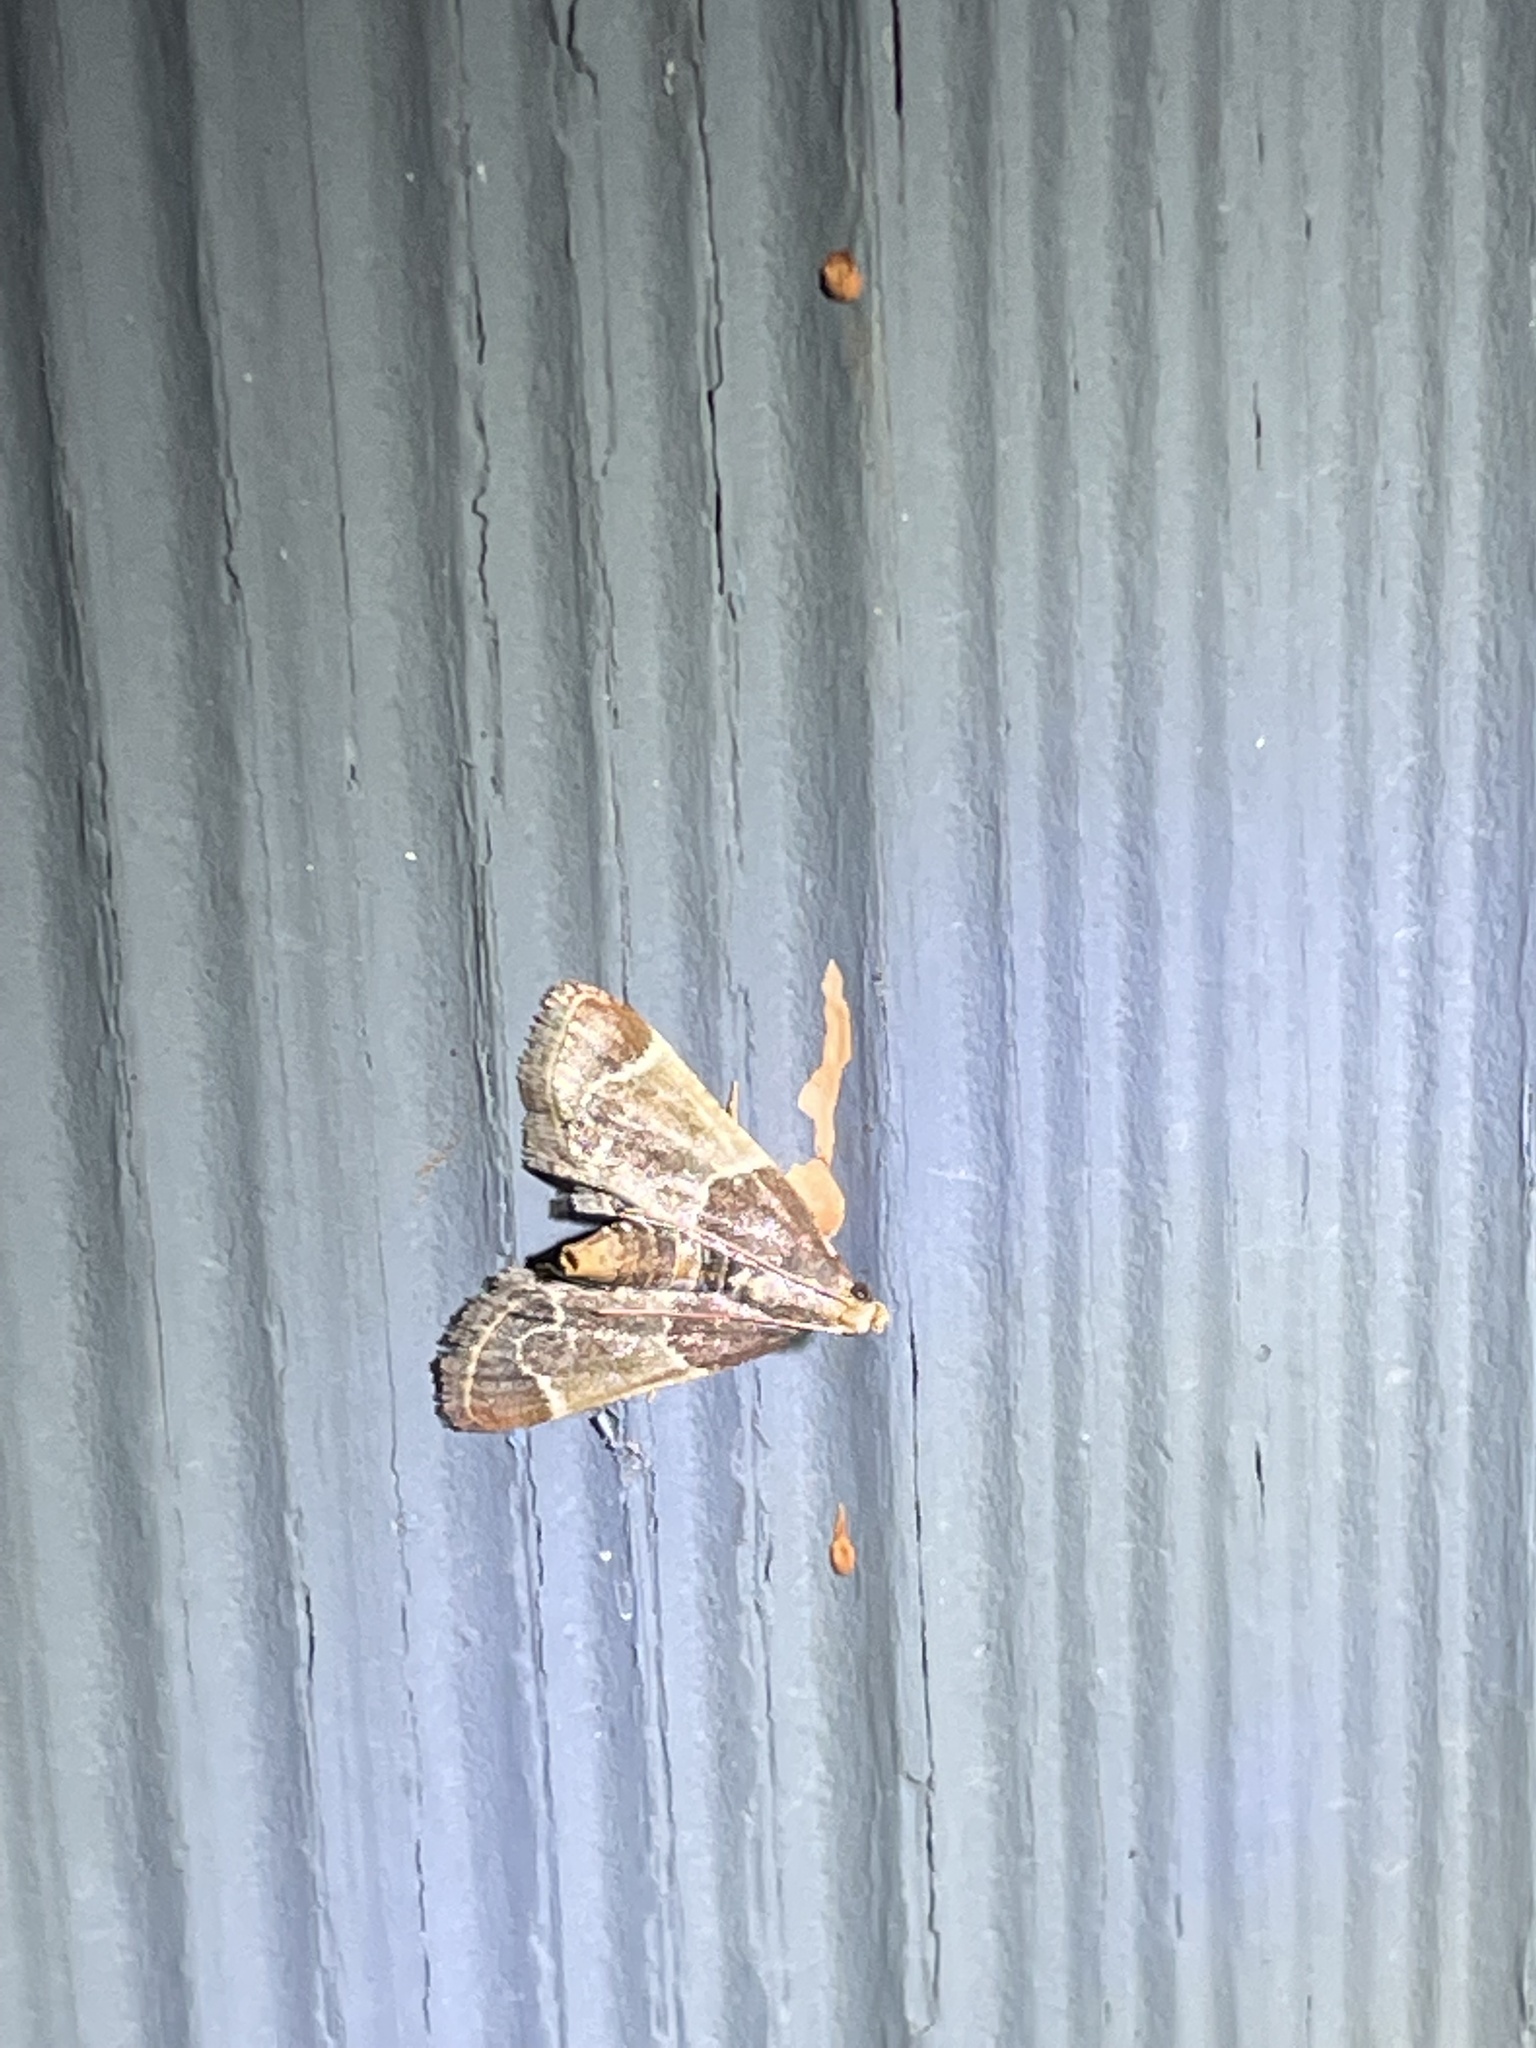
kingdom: Animalia
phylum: Arthropoda
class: Insecta
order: Lepidoptera
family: Pyralidae
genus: Pyralis
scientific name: Pyralis farinalis
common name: Meal moth
